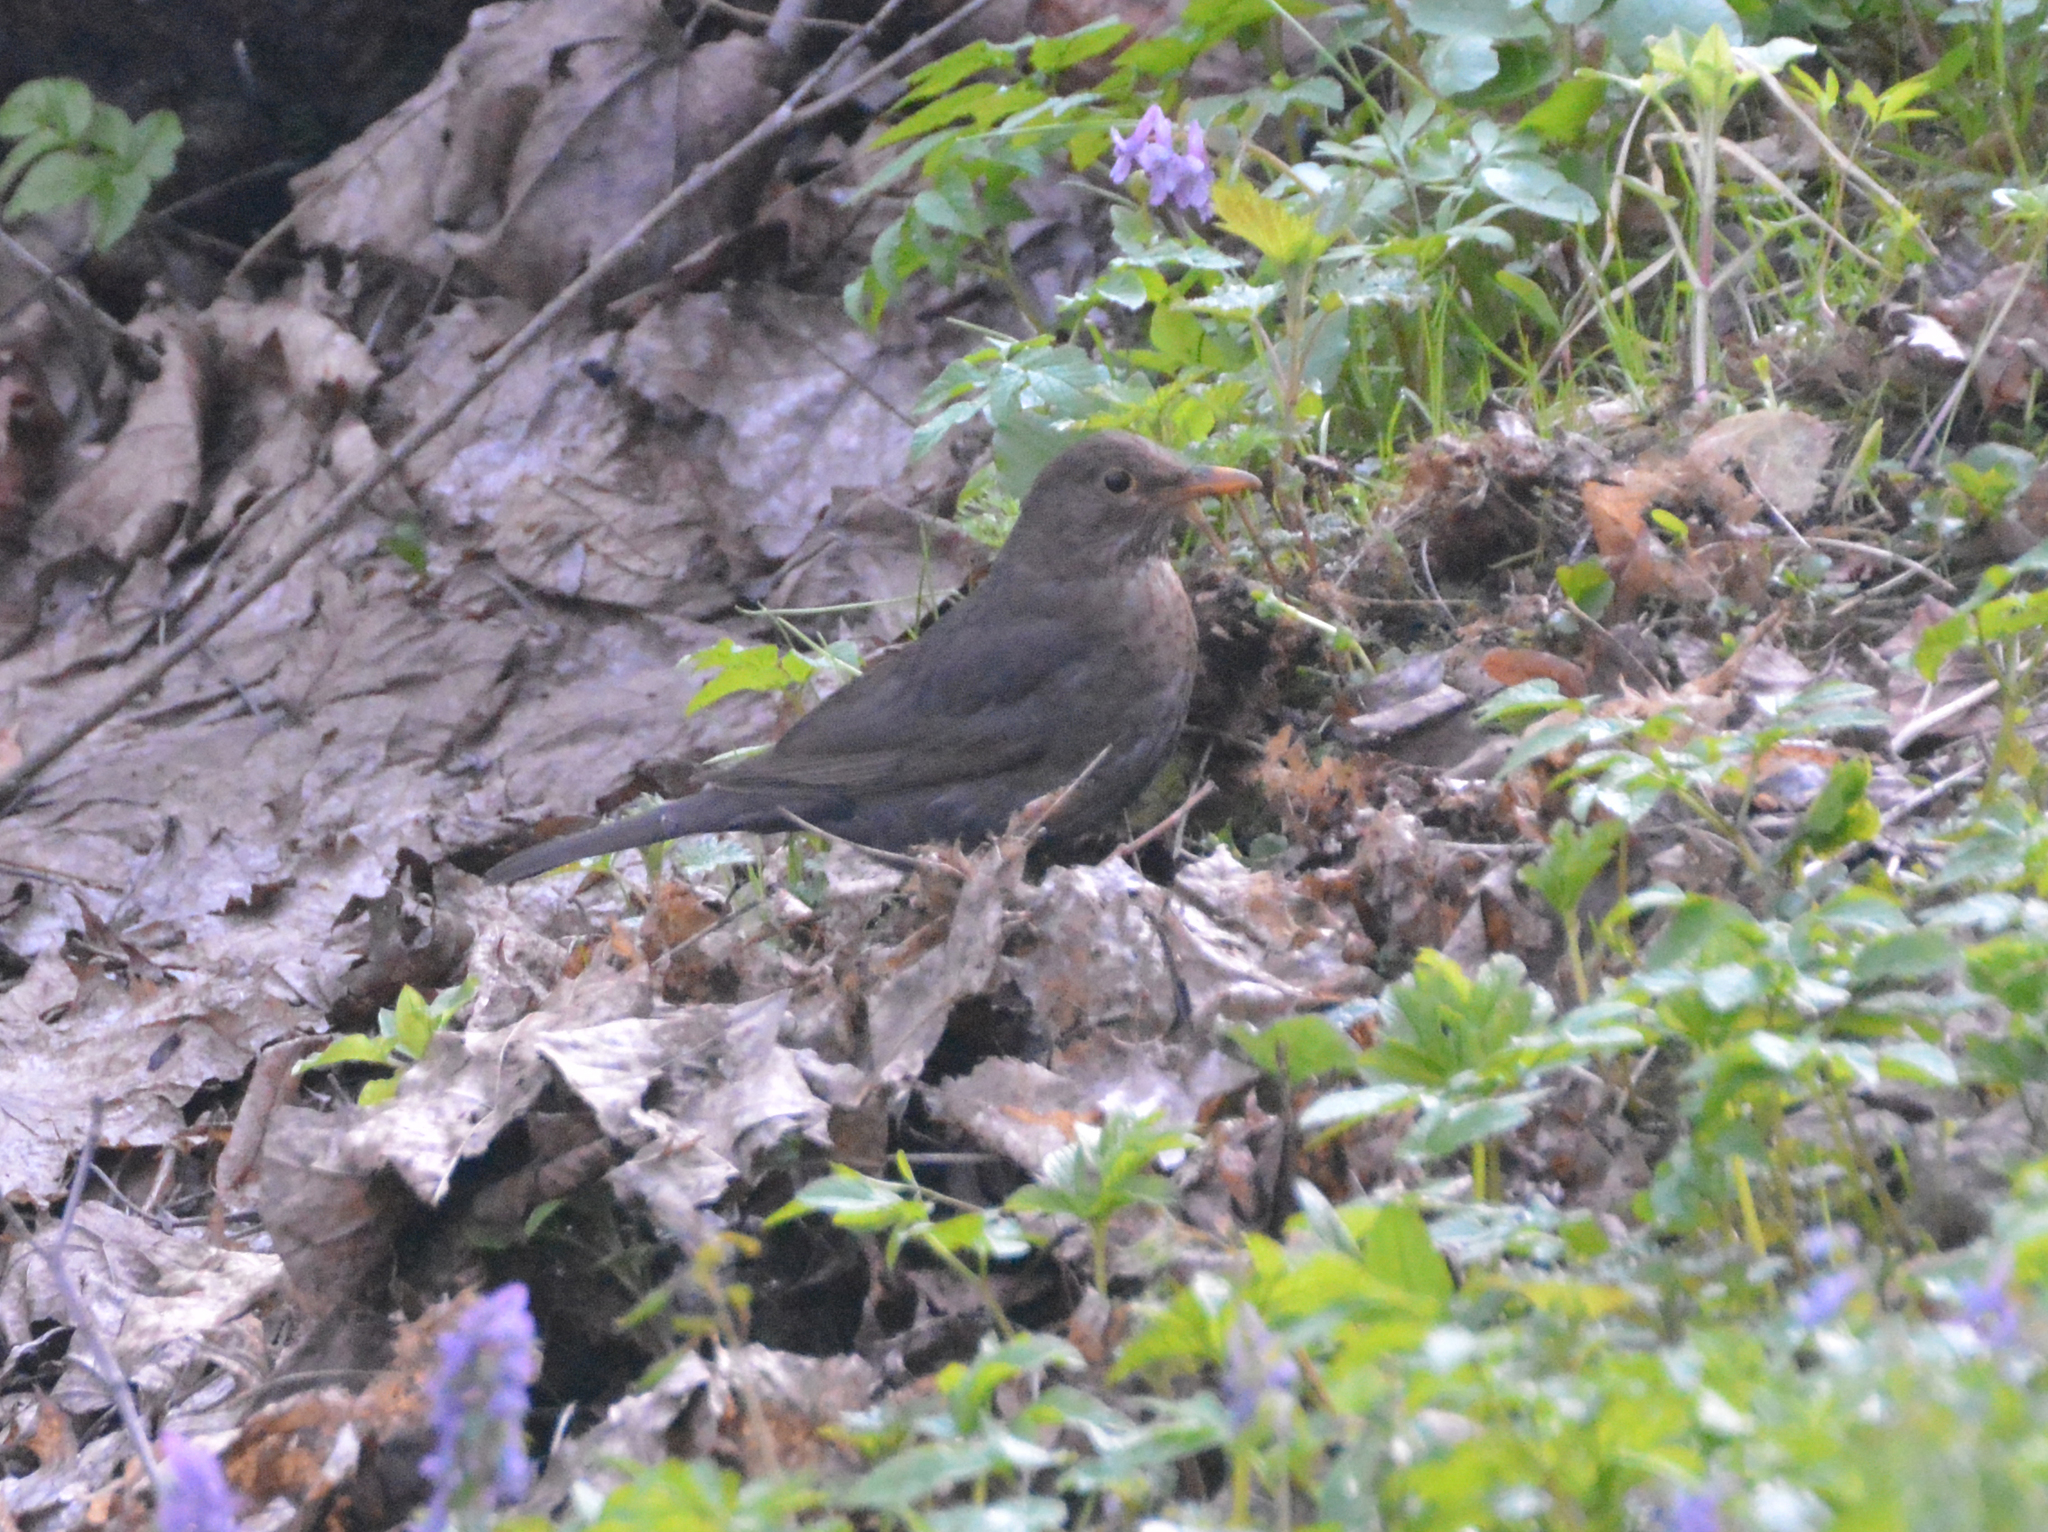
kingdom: Animalia
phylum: Chordata
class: Aves
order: Passeriformes
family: Turdidae
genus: Turdus
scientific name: Turdus merula
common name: Common blackbird
